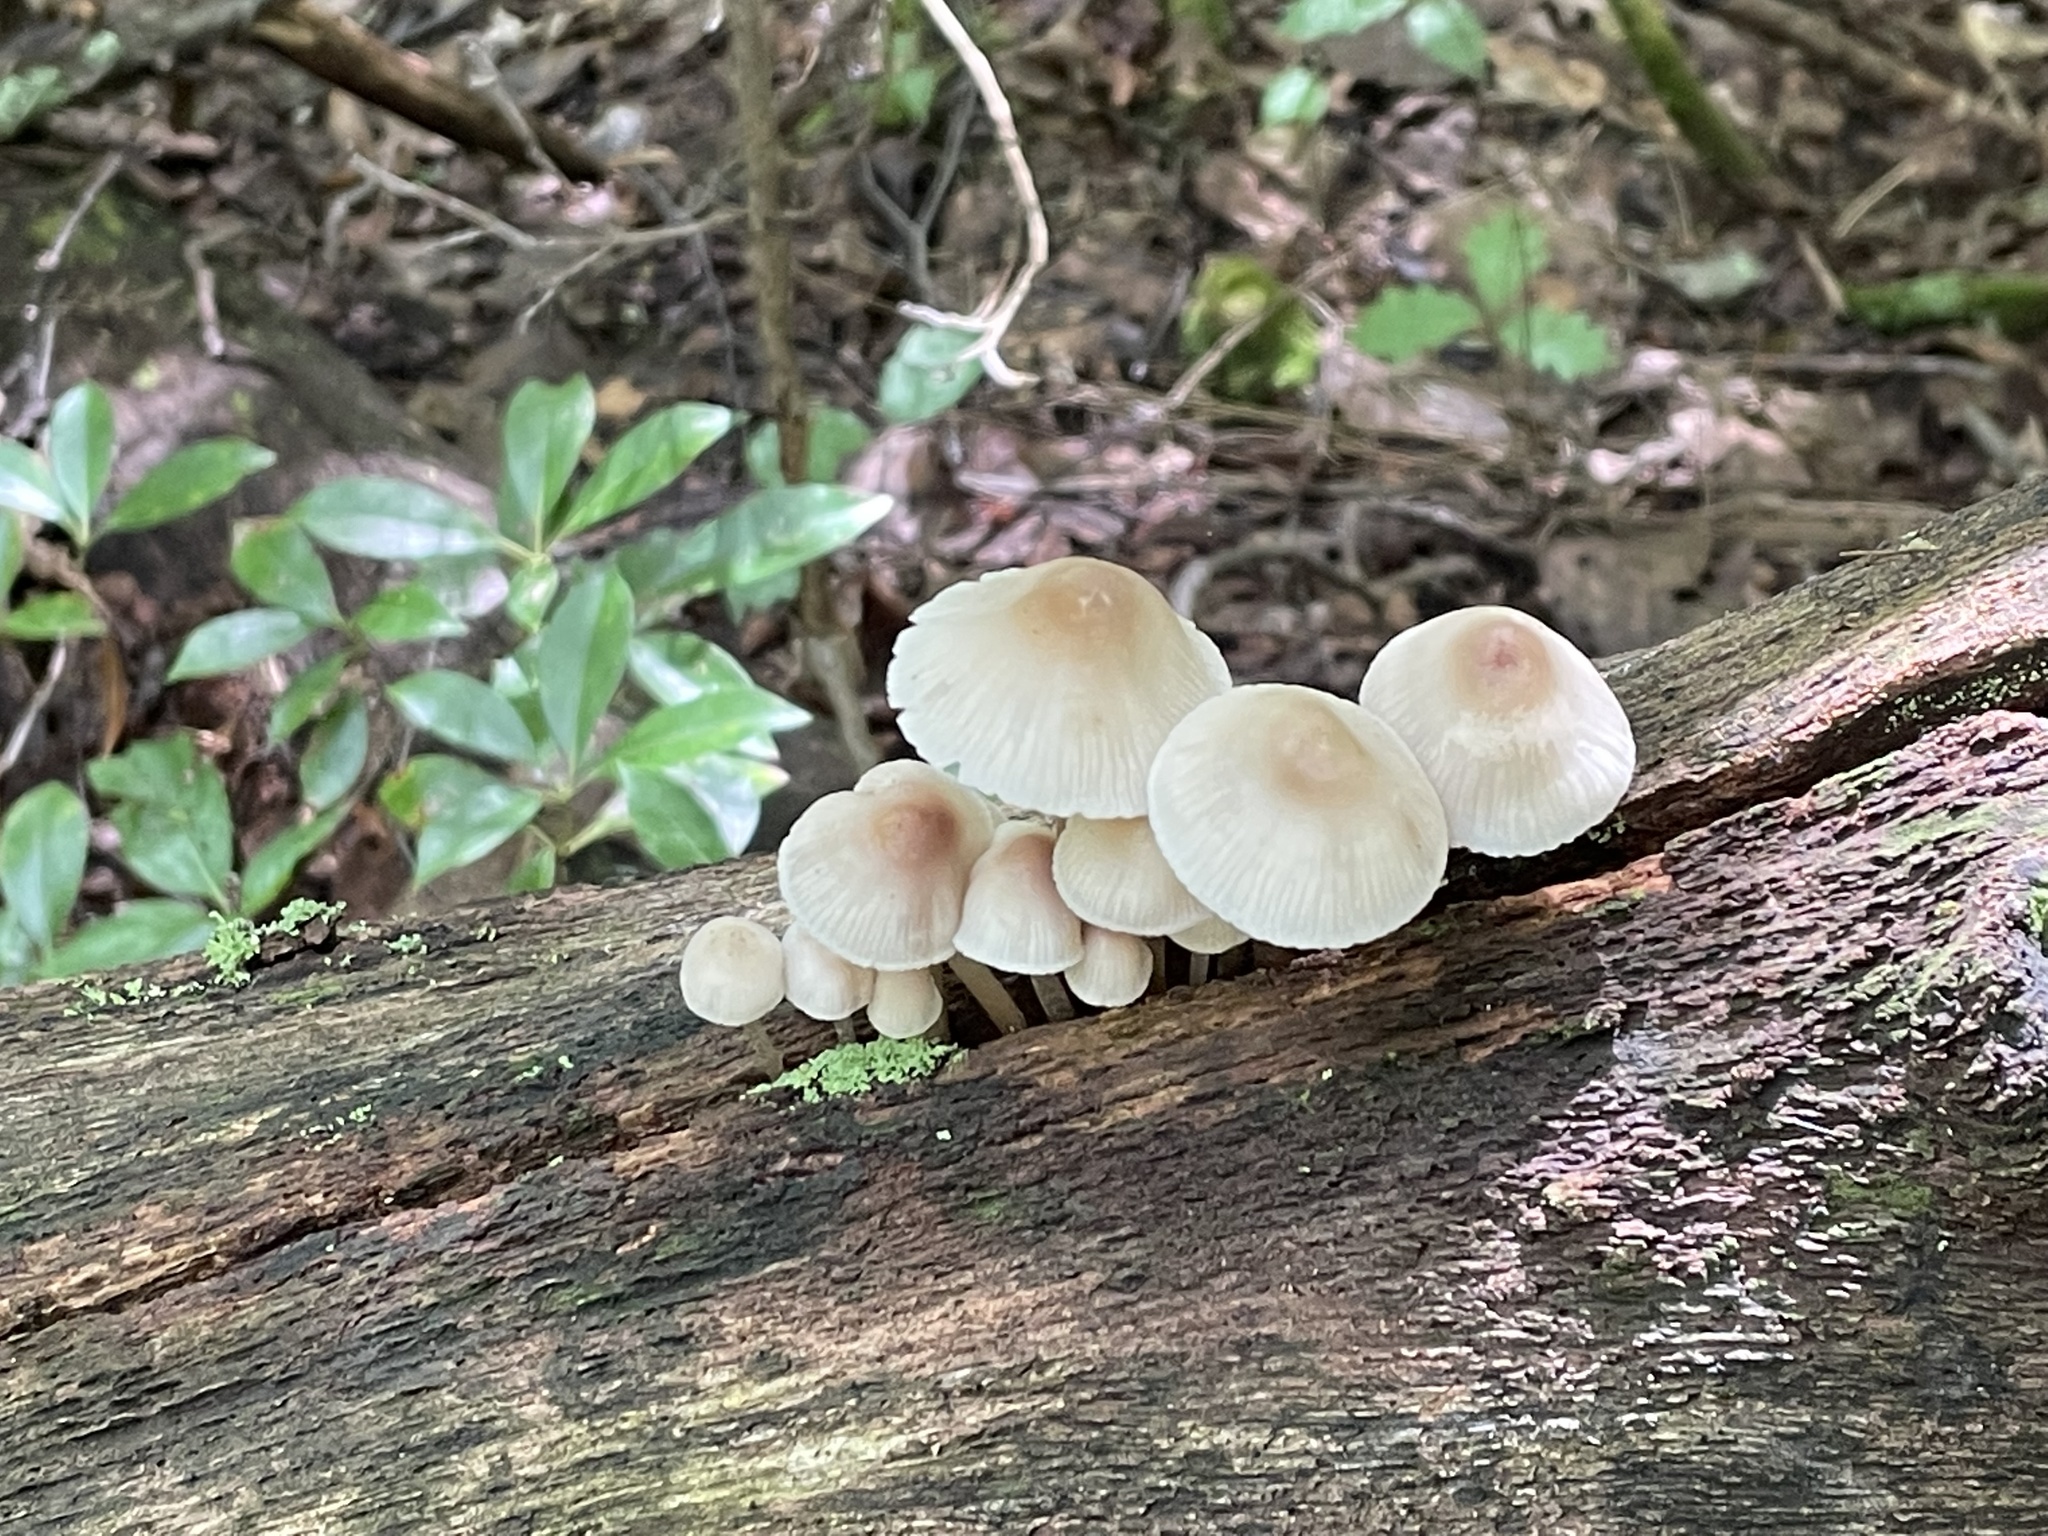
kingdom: Fungi
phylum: Basidiomycota
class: Agaricomycetes
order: Agaricales
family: Mycenaceae
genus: Mycena
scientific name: Mycena inclinata
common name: Clustered bonnet
